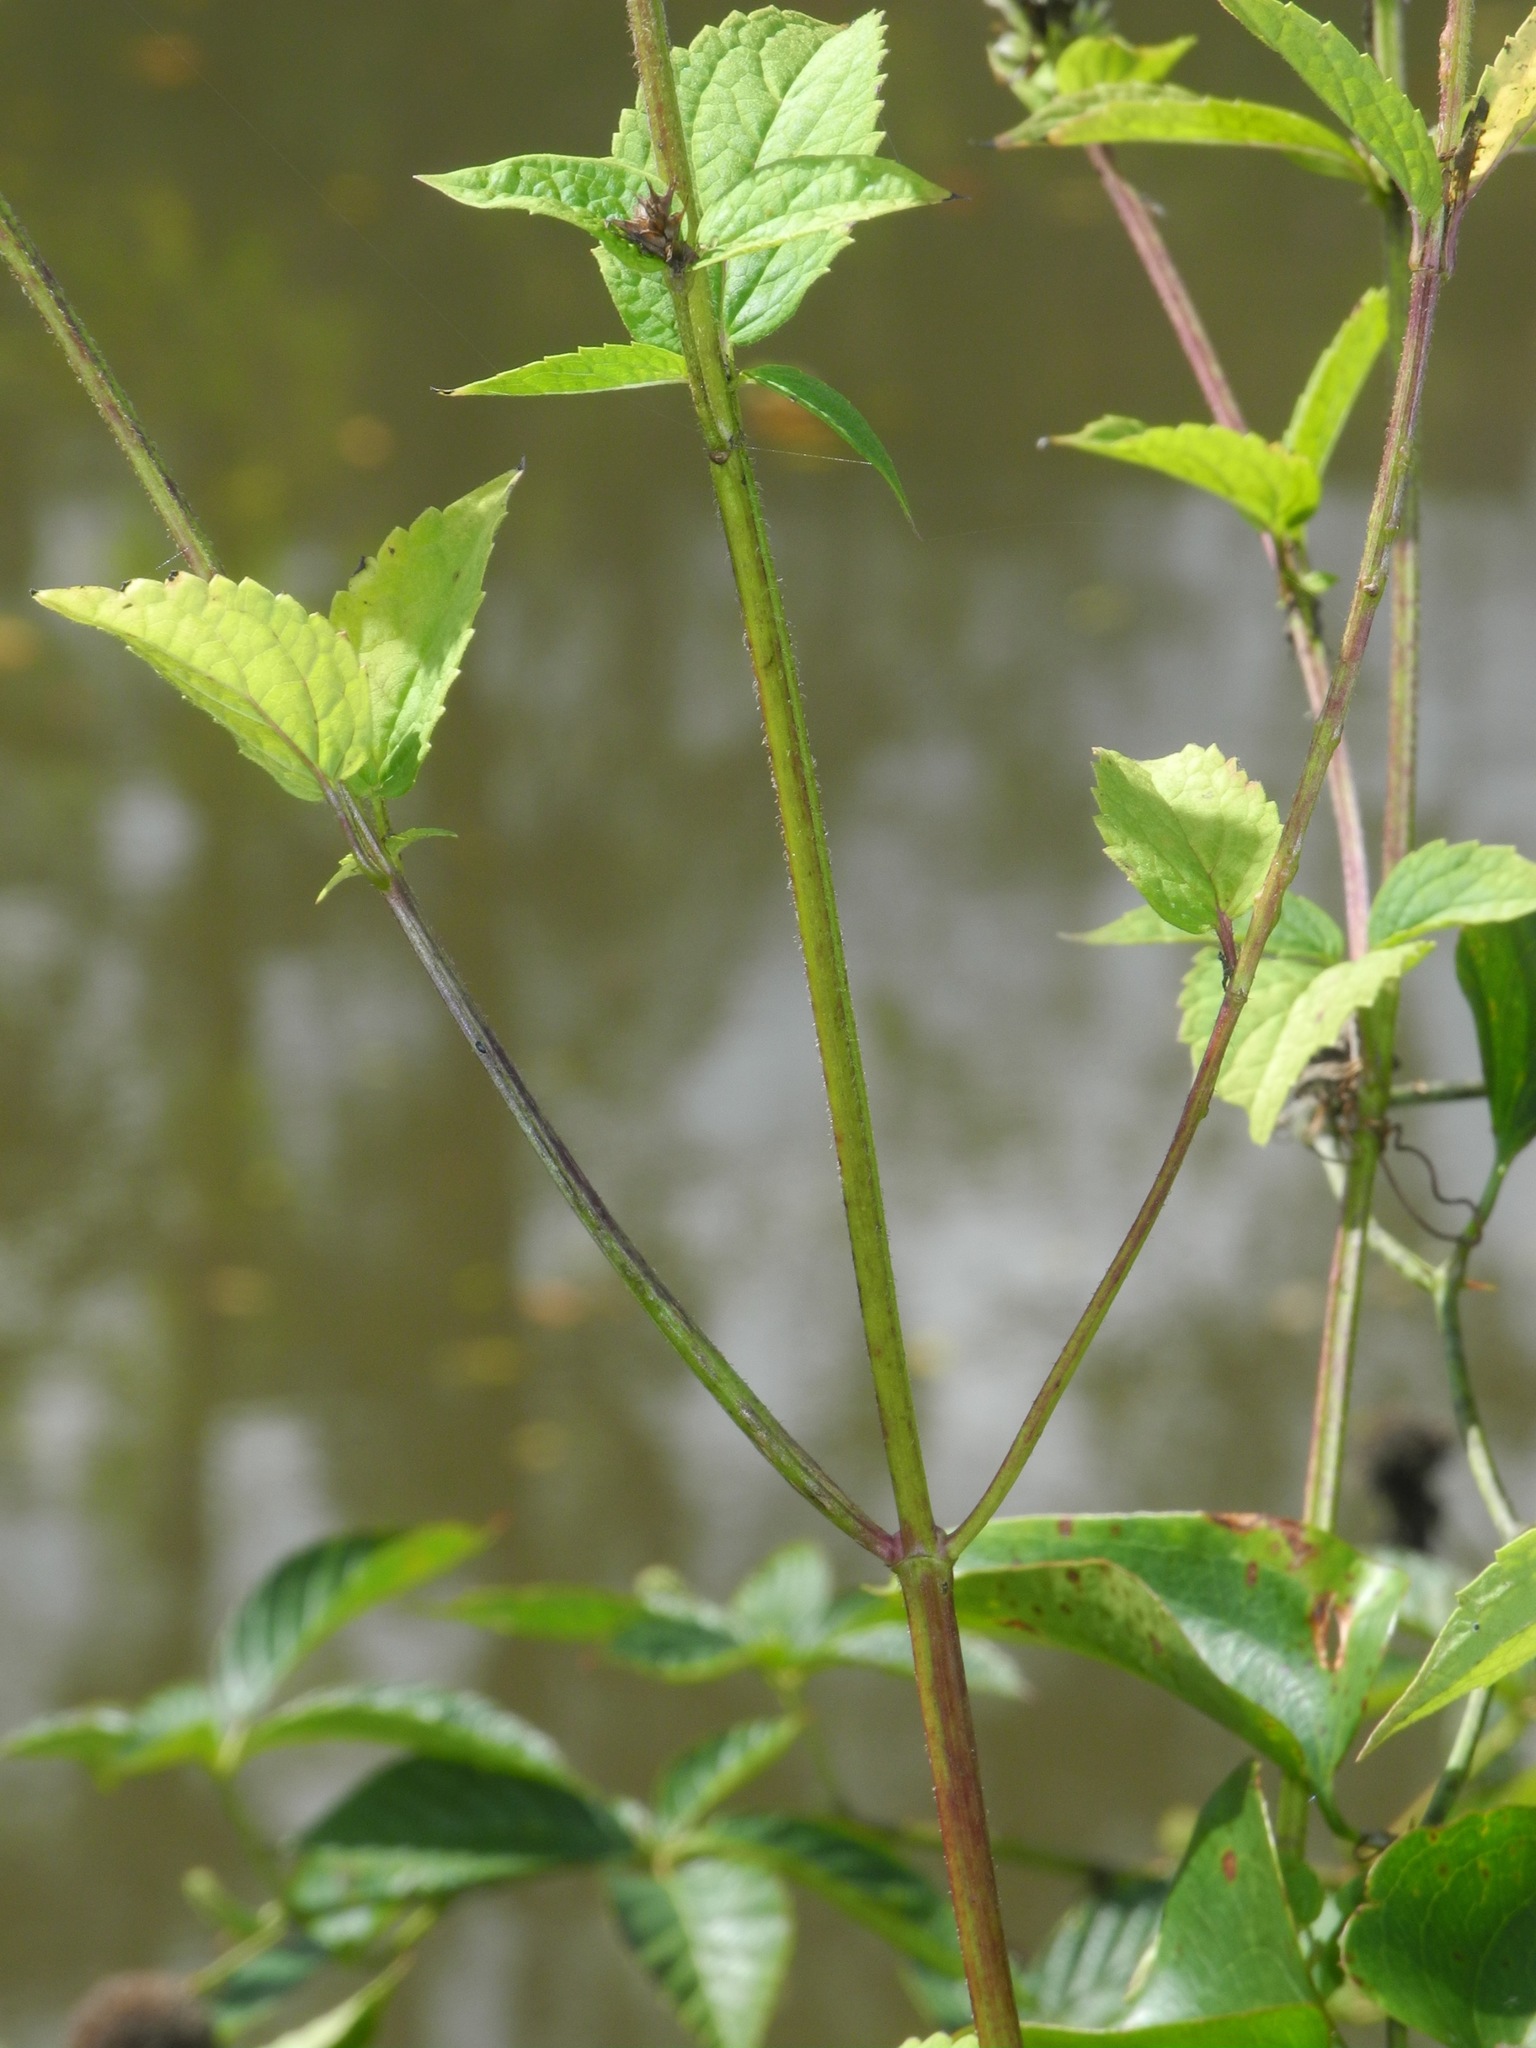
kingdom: Plantae
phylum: Tracheophyta
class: Magnoliopsida
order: Lamiales
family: Lamiaceae
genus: Agastache
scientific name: Agastache scrophulariifolia
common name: Figwort giant hyssop
